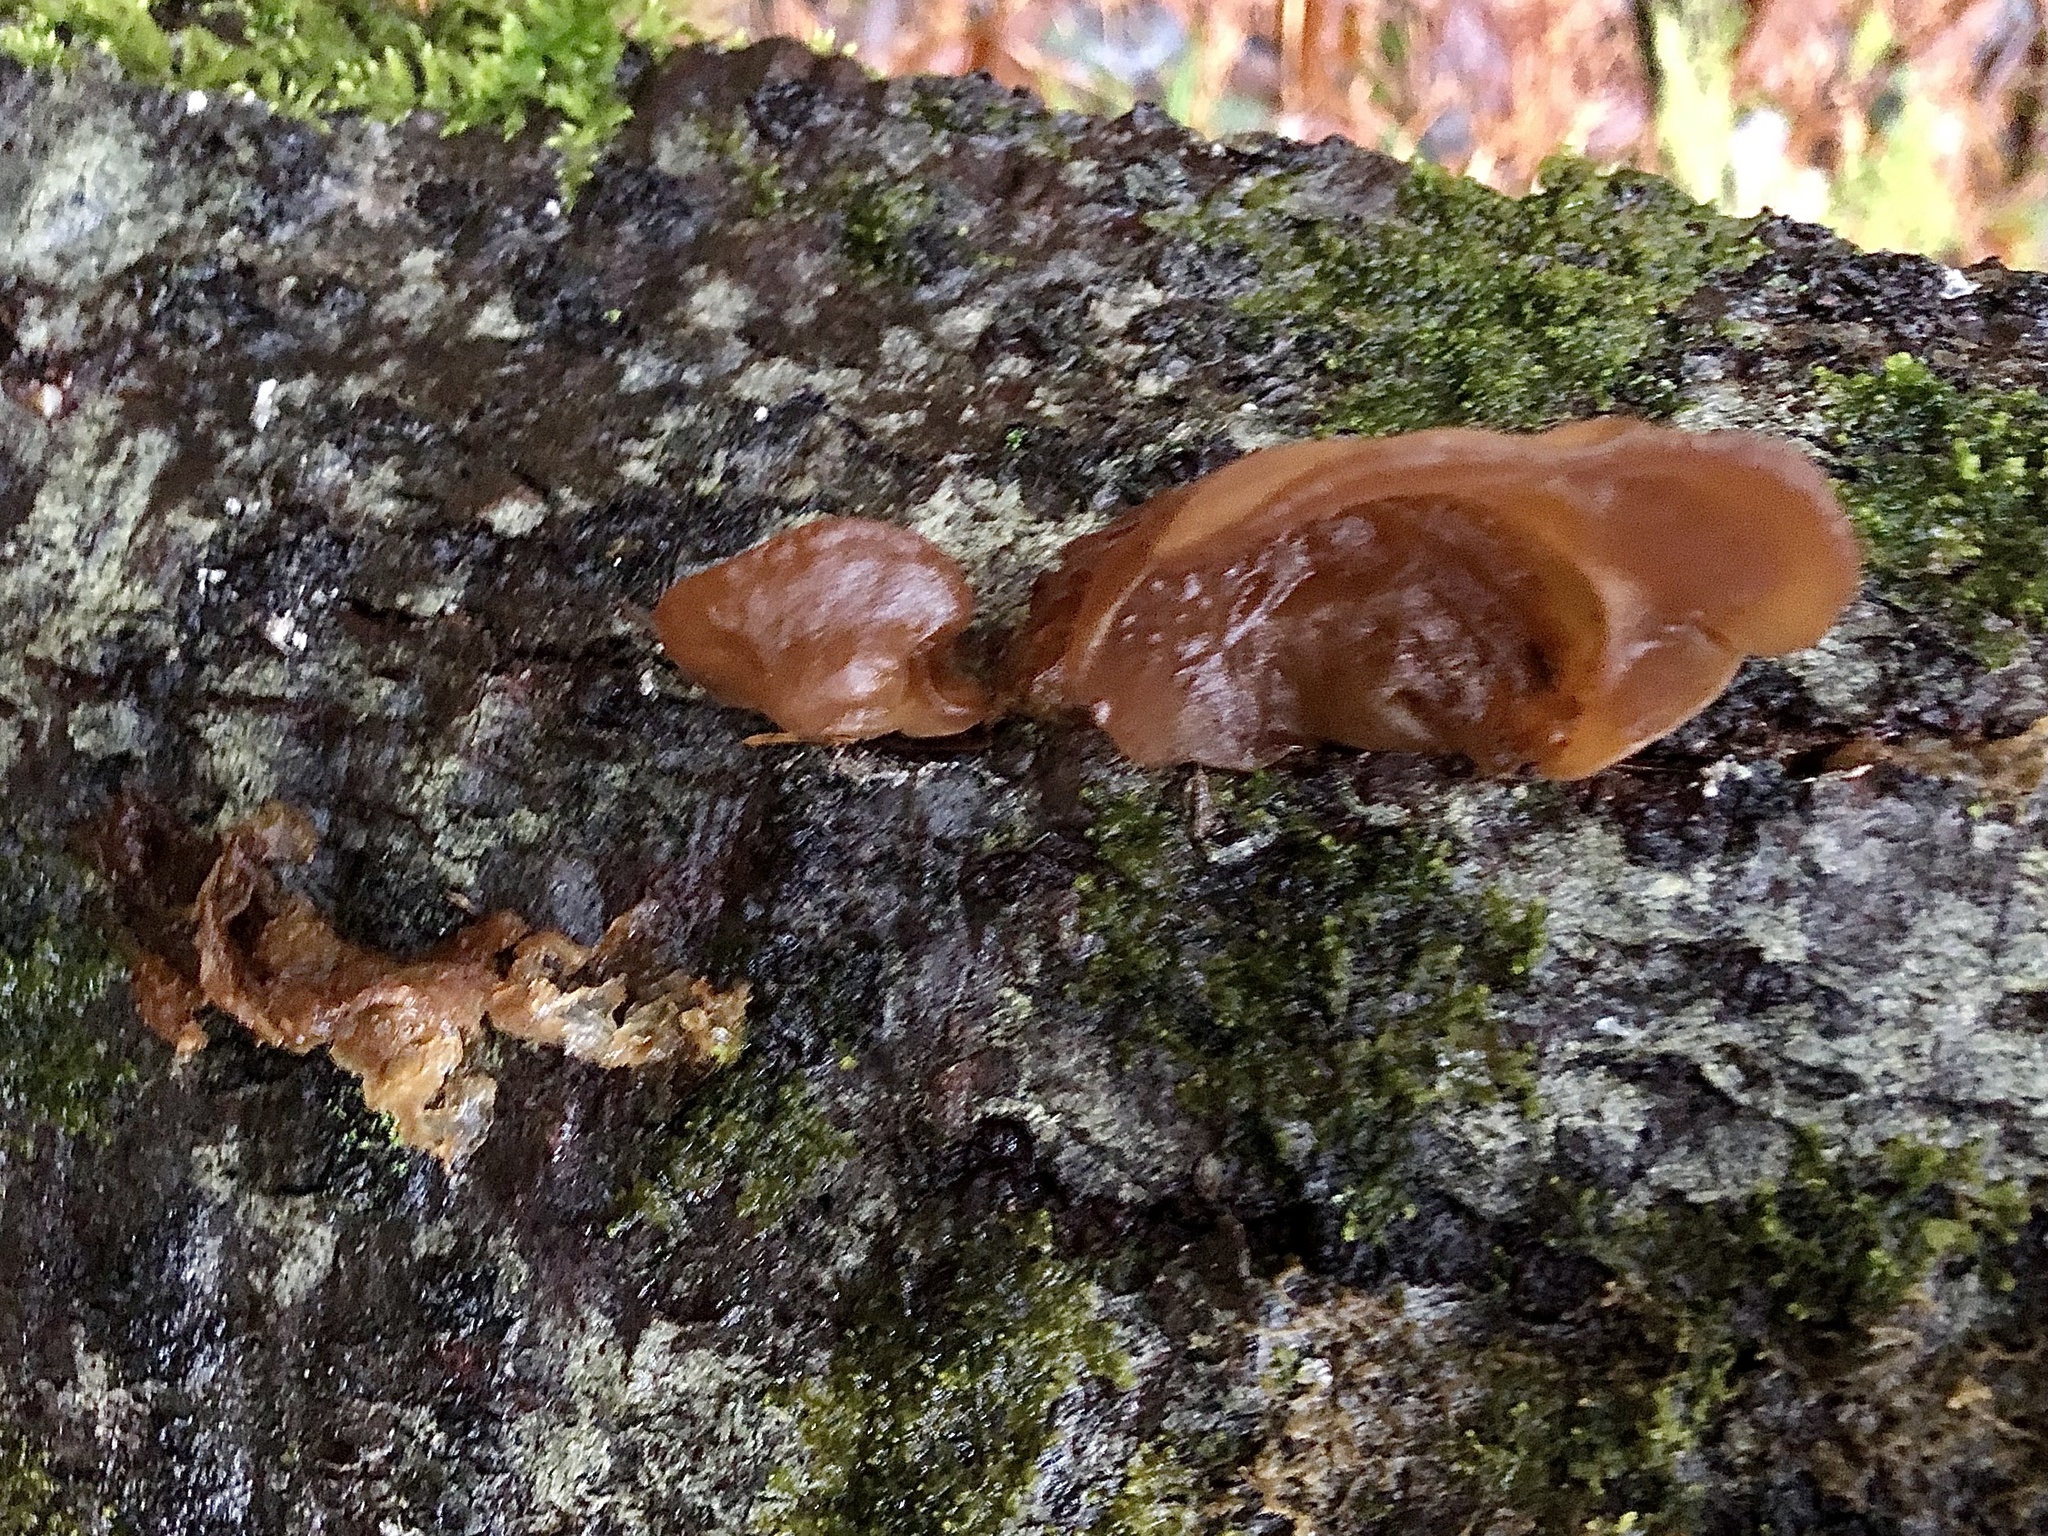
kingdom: Fungi
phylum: Basidiomycota
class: Agaricomycetes
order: Auriculariales
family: Auriculariaceae
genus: Auricularia
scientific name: Auricularia americana
